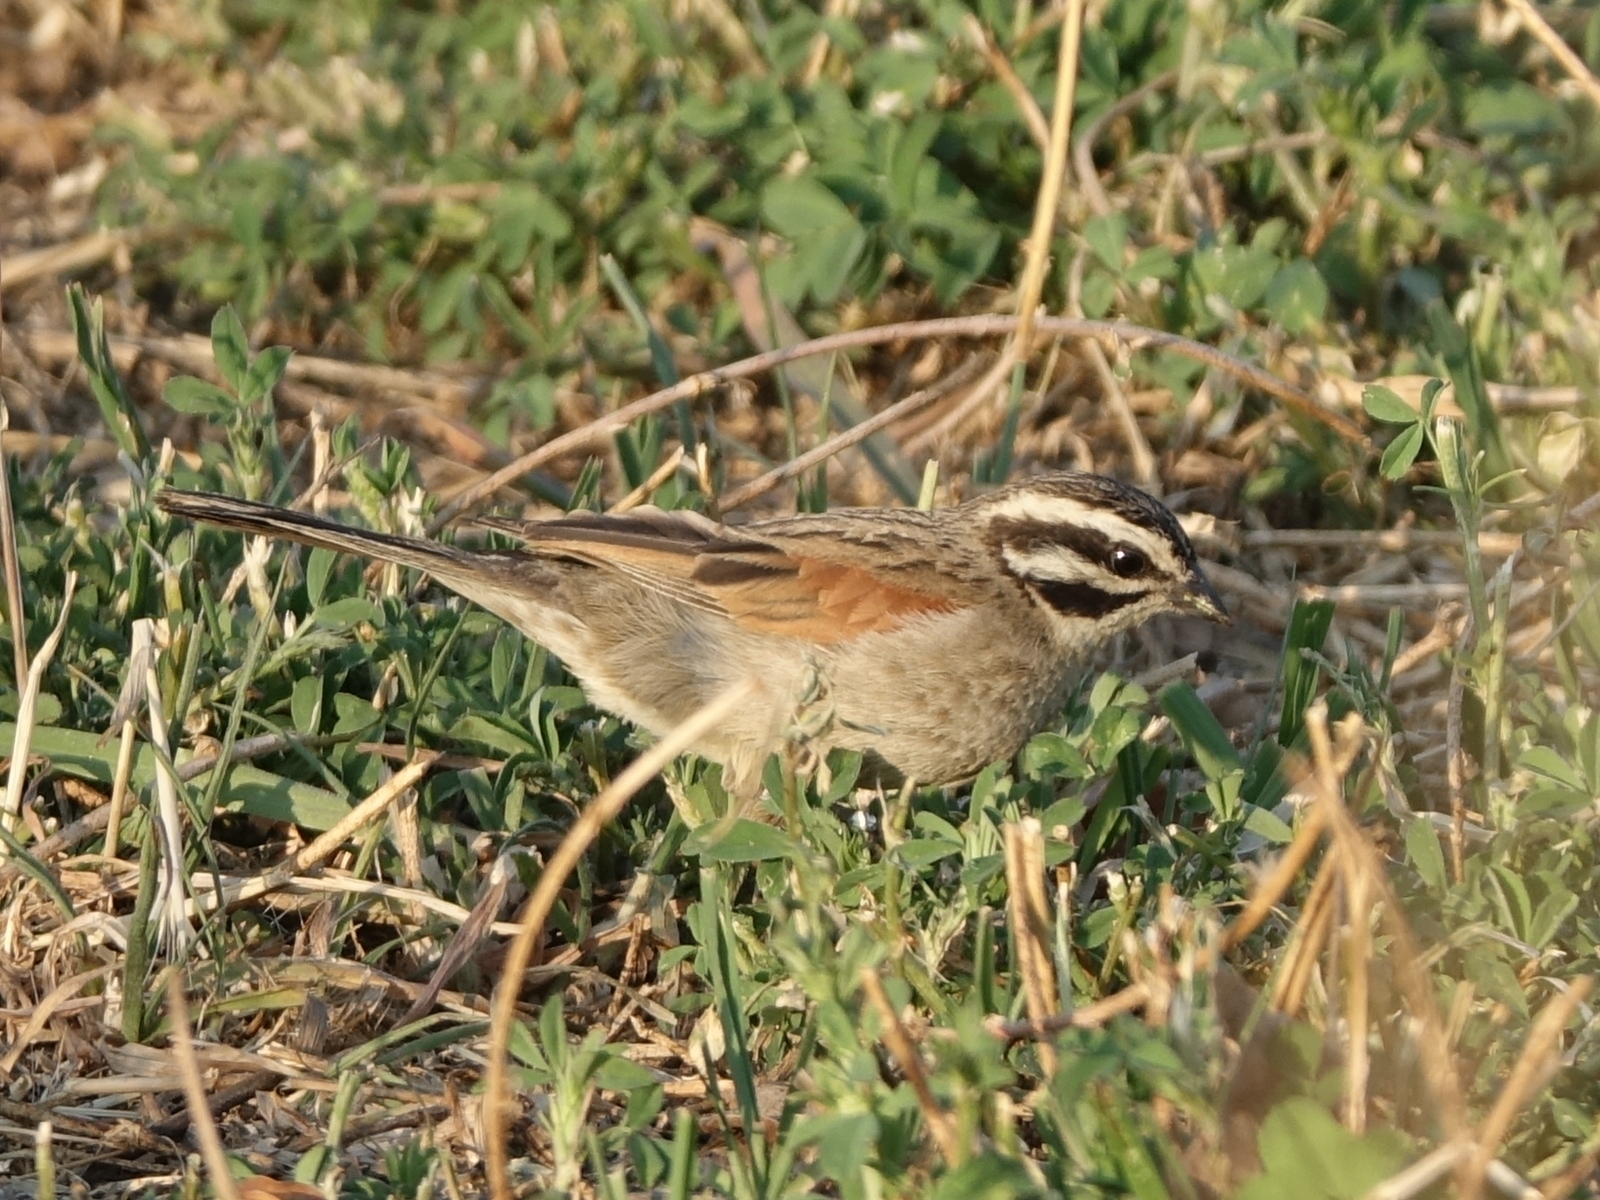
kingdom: Animalia
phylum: Chordata
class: Aves
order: Passeriformes
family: Emberizidae
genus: Emberiza
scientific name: Emberiza capensis
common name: Cape bunting
